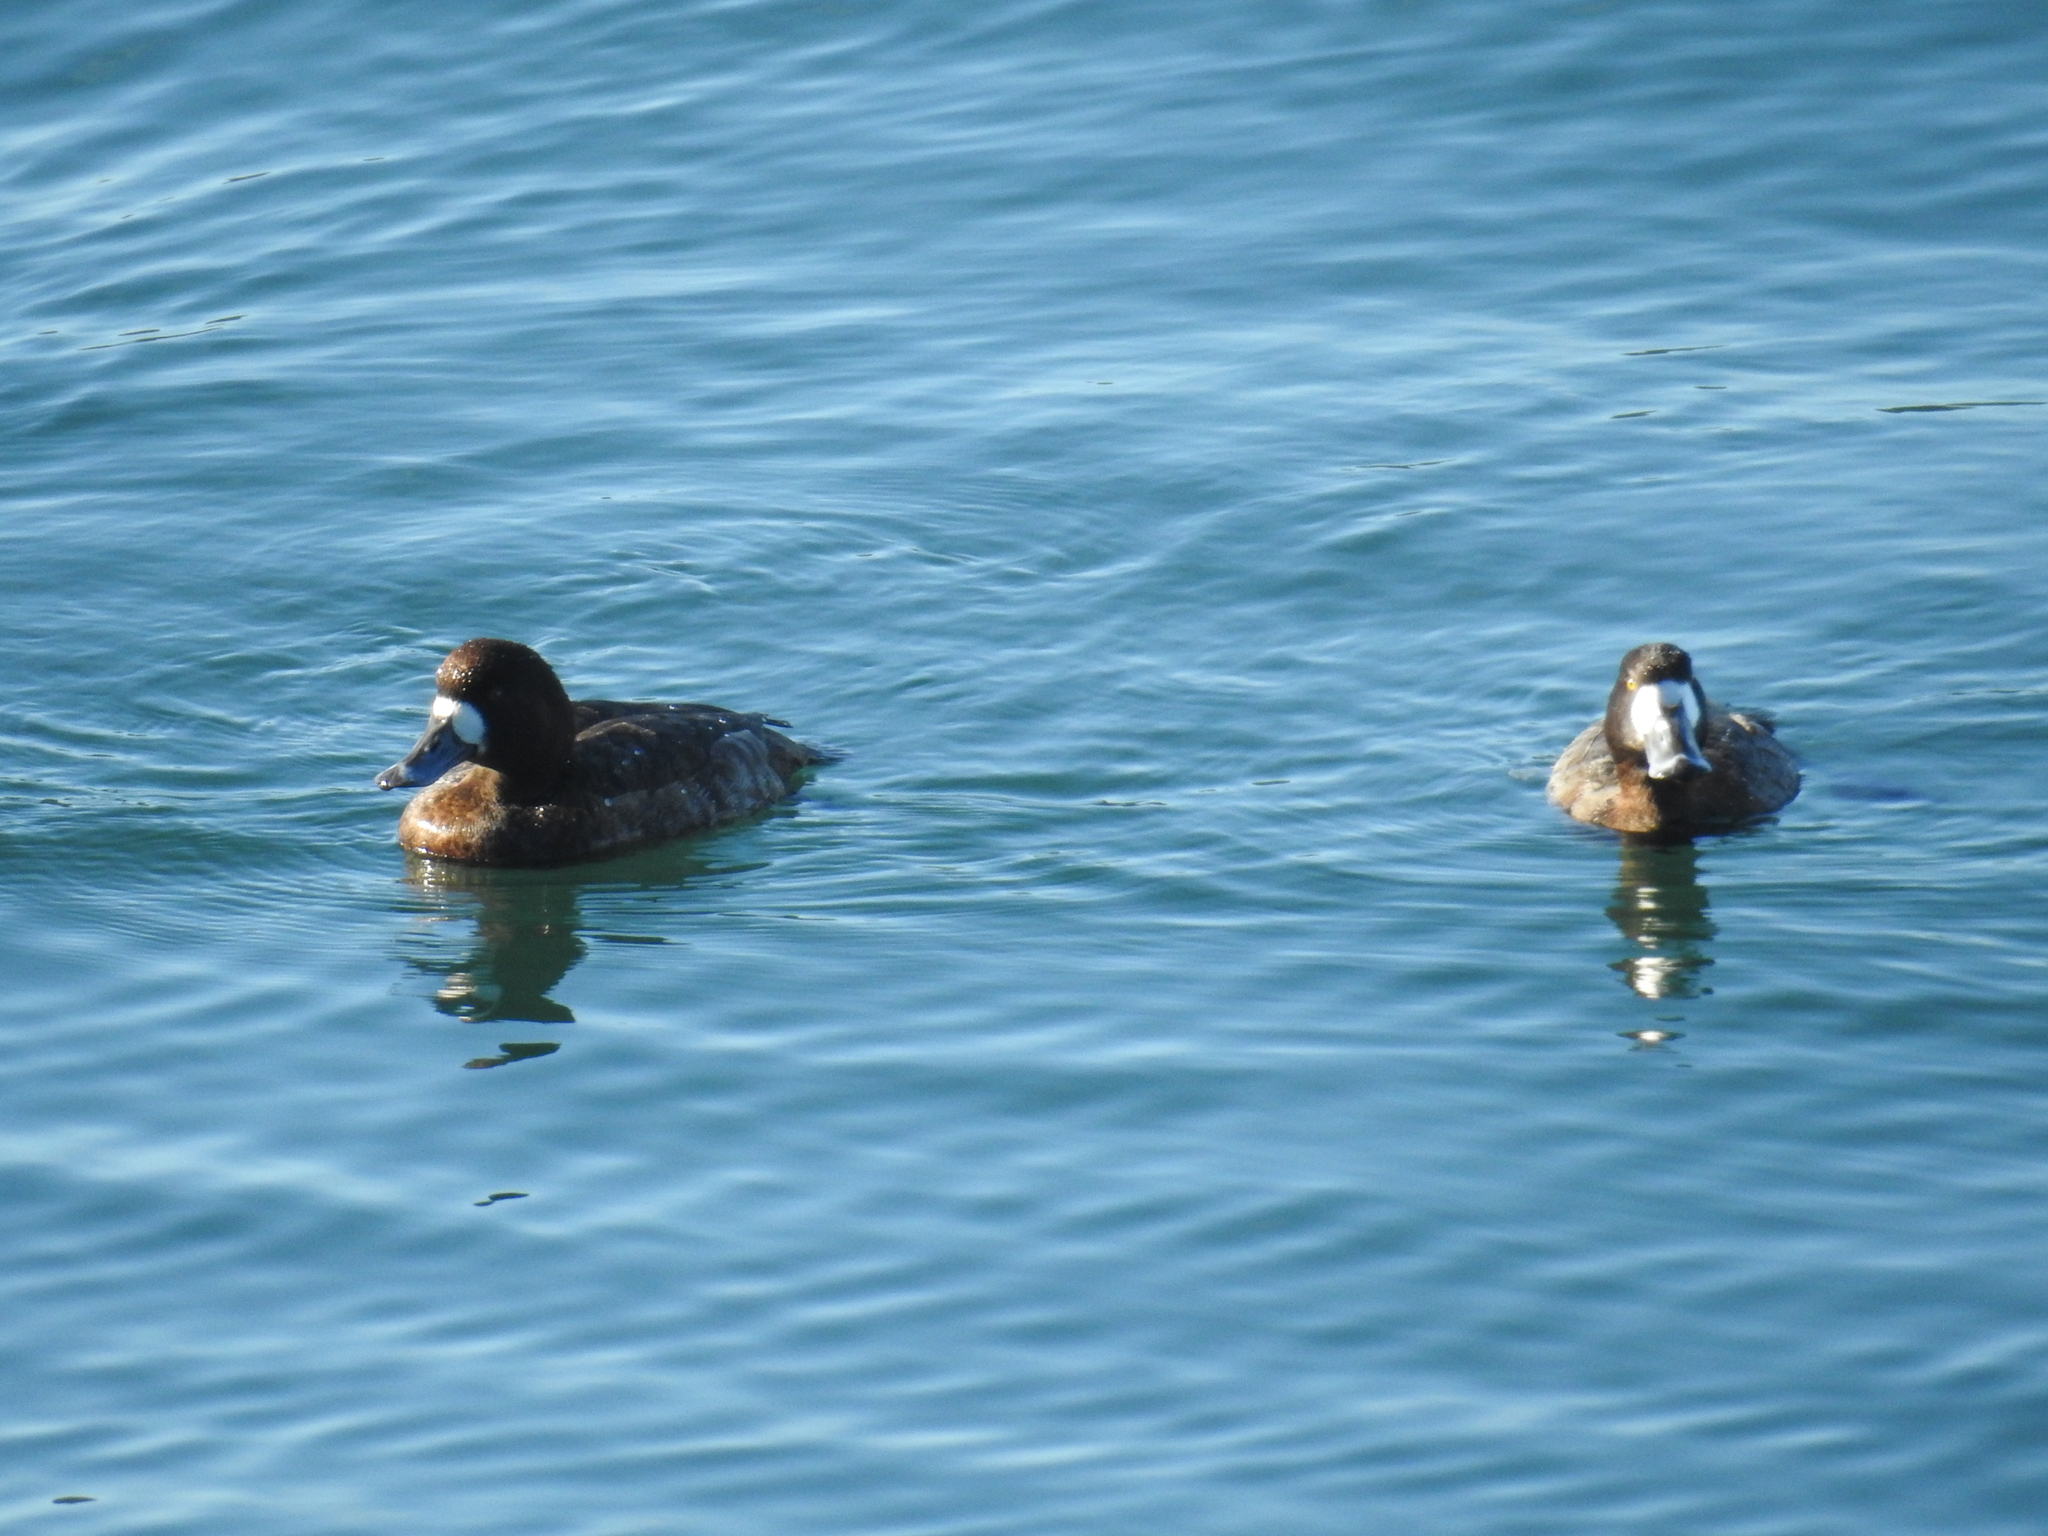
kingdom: Animalia
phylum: Chordata
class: Aves
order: Anseriformes
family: Anatidae
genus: Aythya
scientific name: Aythya marila
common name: Greater scaup
